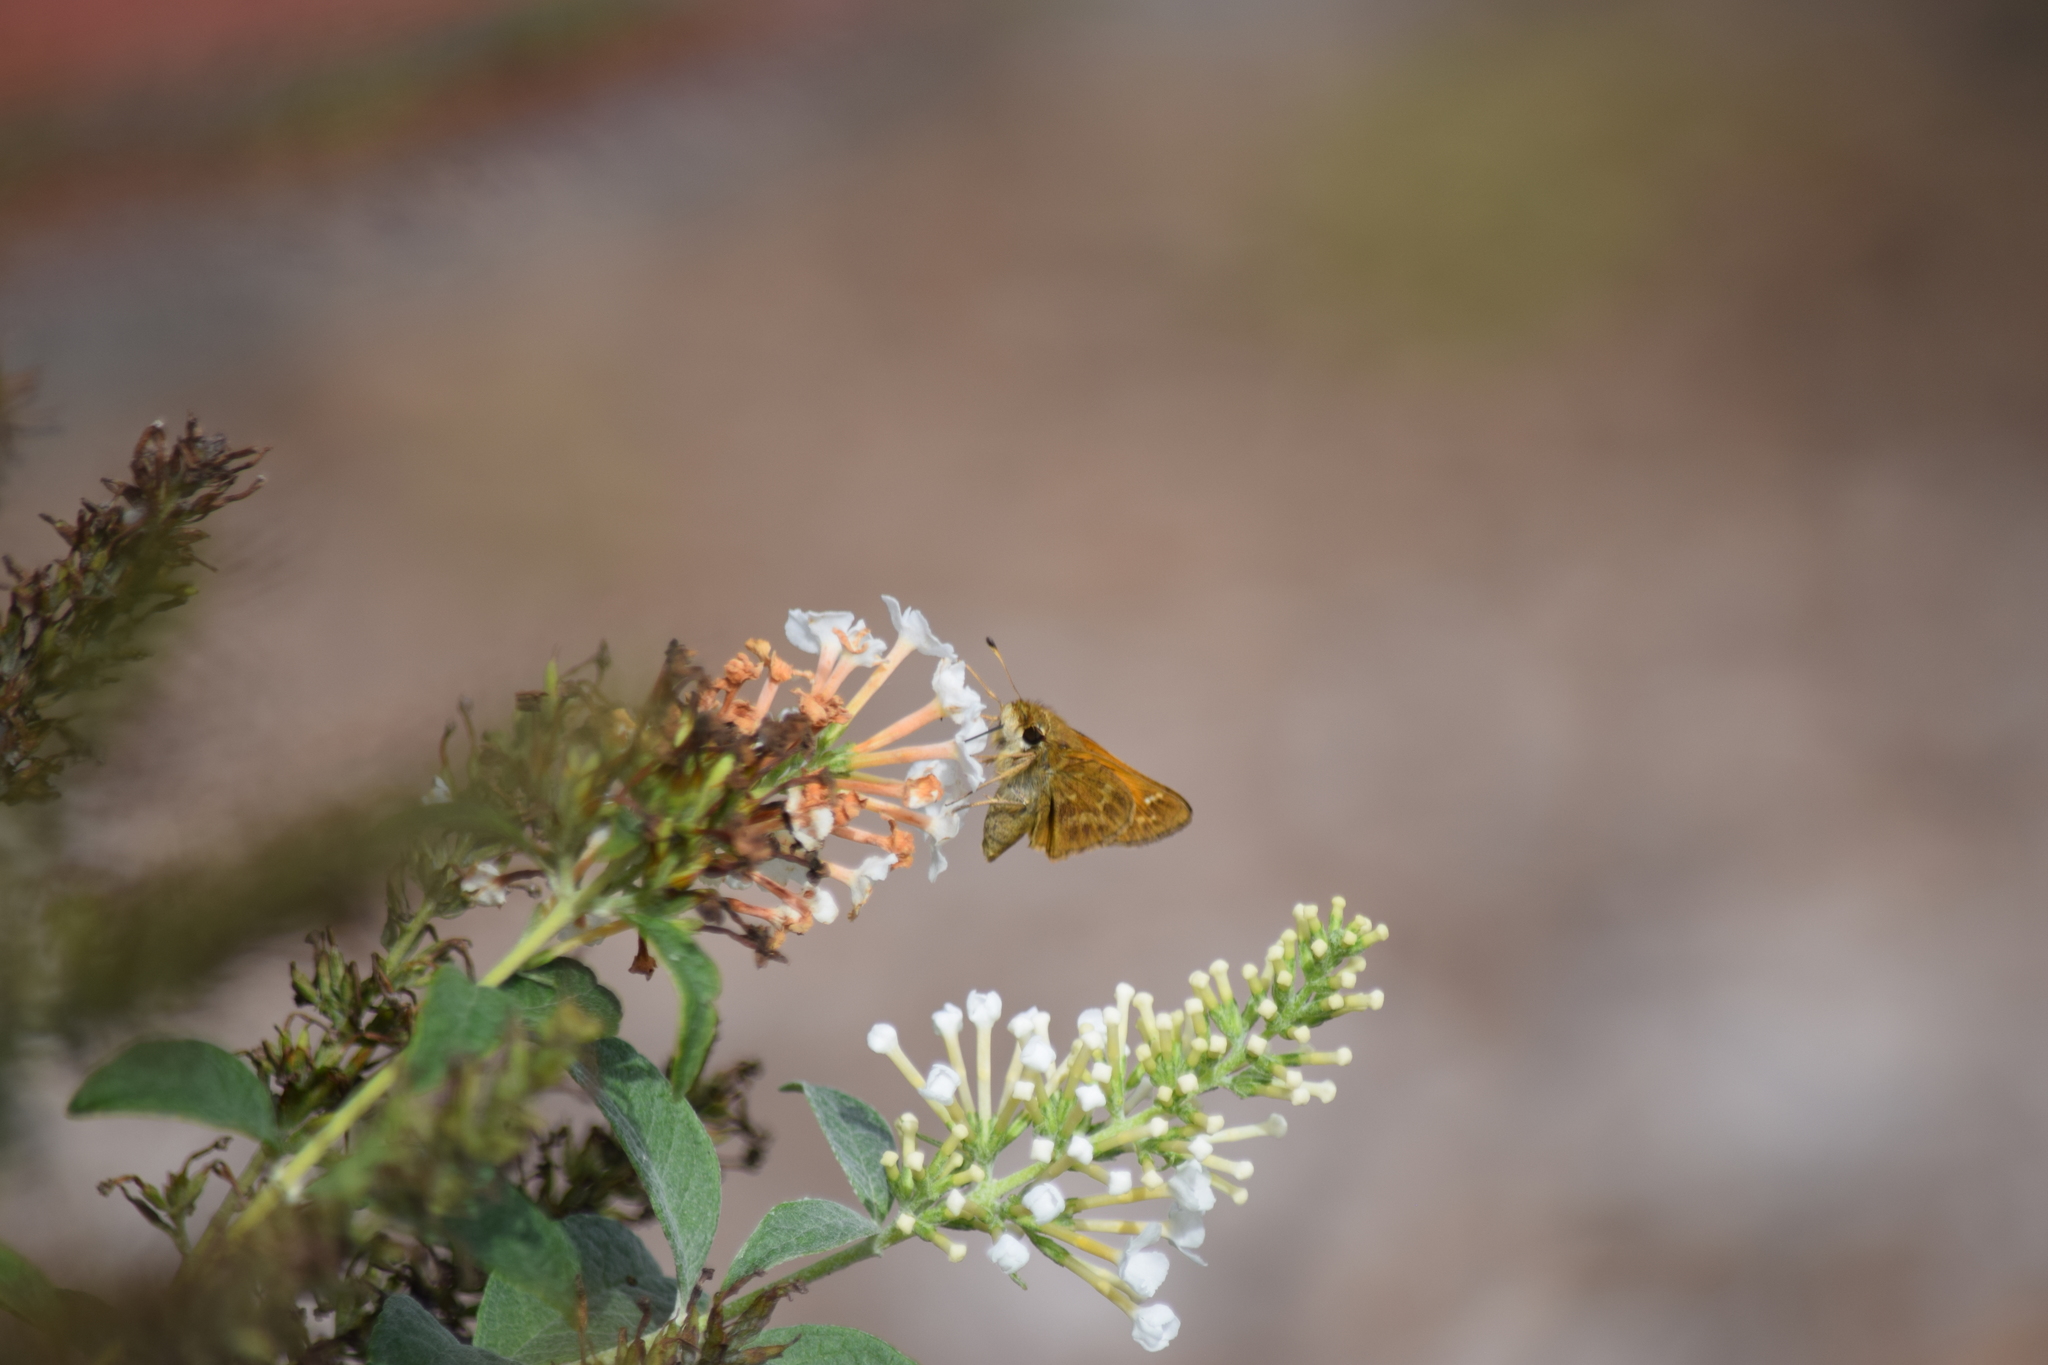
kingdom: Animalia
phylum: Arthropoda
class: Insecta
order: Lepidoptera
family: Hesperiidae
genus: Atalopedes
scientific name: Atalopedes
